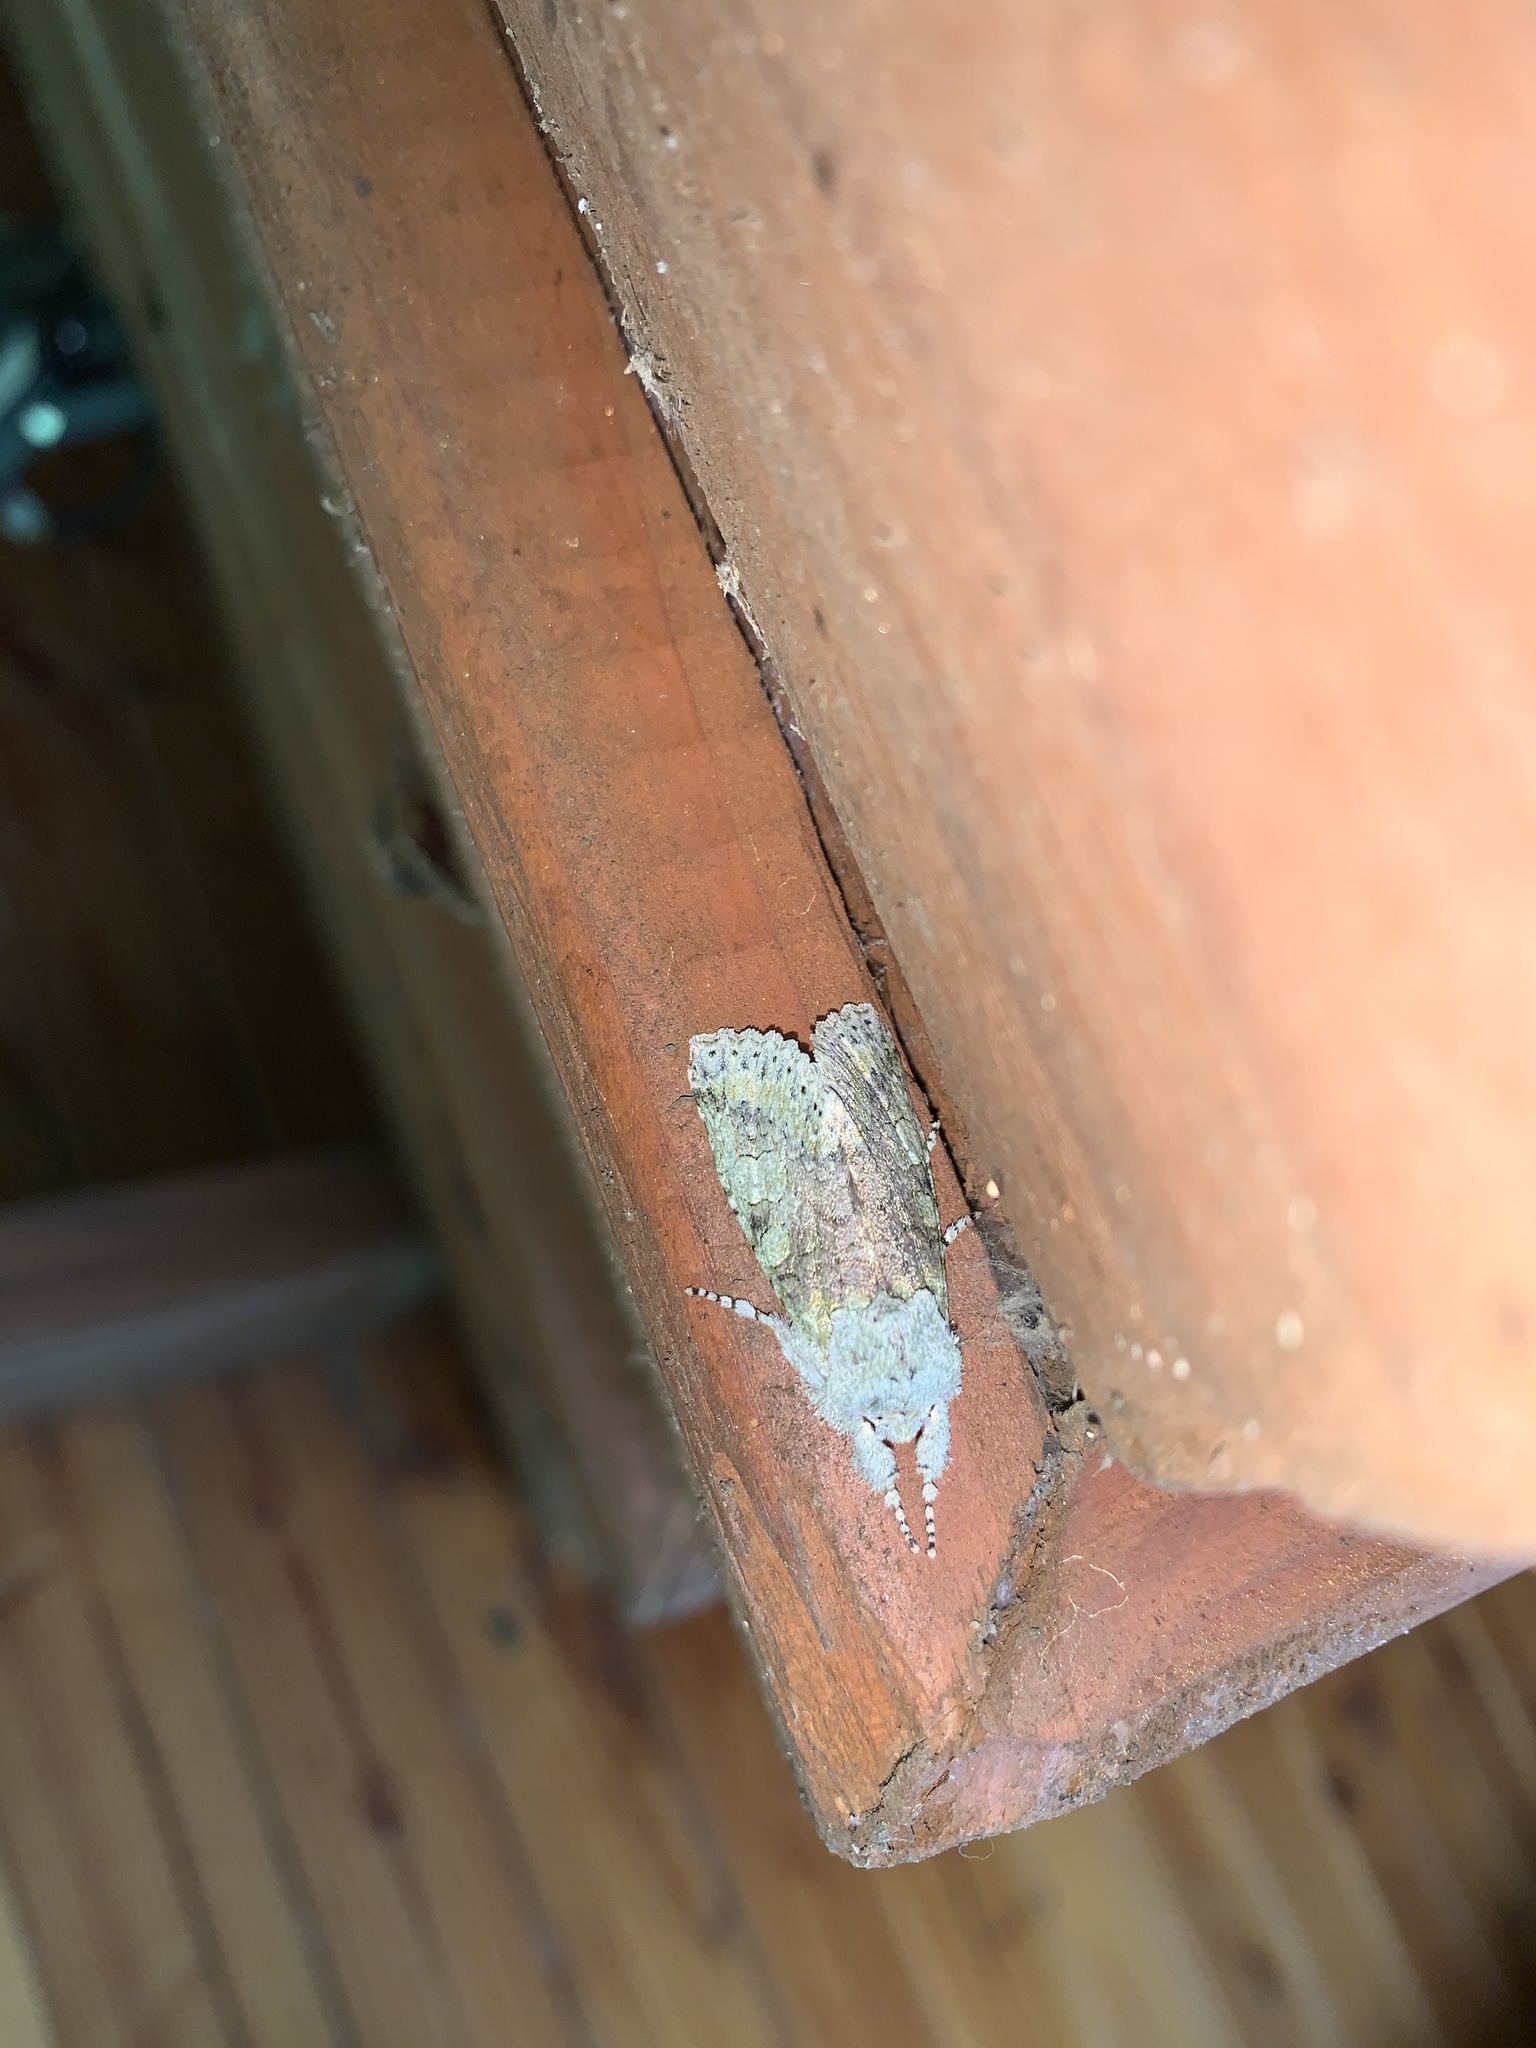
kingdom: Animalia
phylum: Arthropoda
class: Insecta
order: Lepidoptera
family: Noctuidae
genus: Pseudocerura
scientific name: Pseudocerura thoracica
